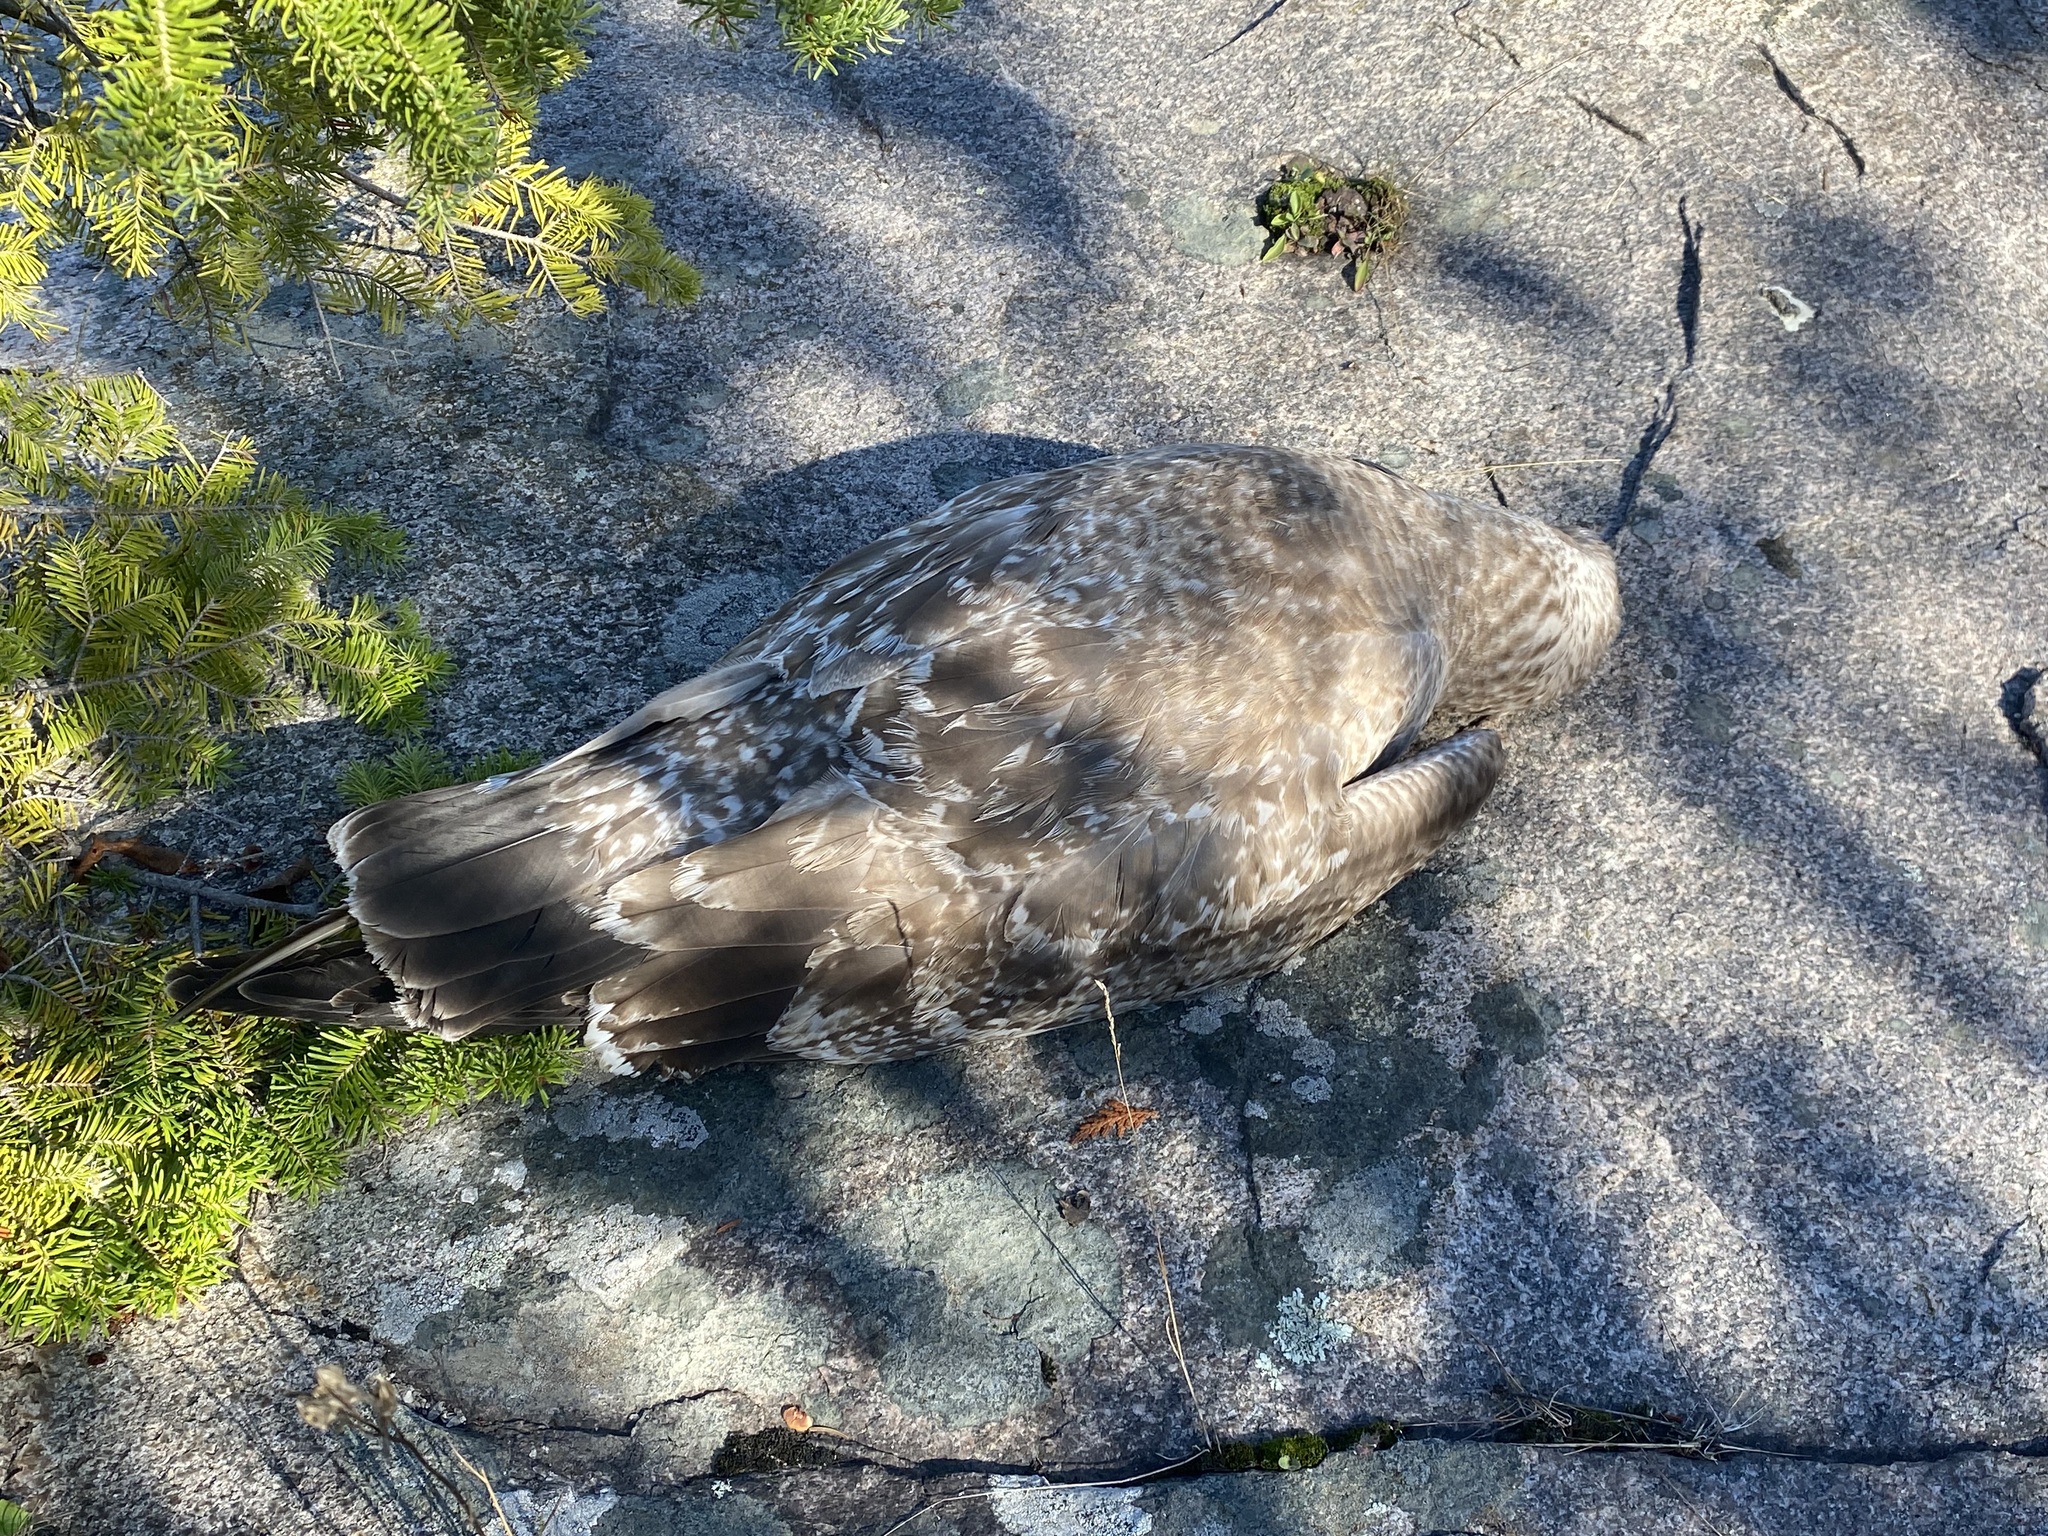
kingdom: Animalia
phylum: Chordata
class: Aves
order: Charadriiformes
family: Laridae
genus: Larus
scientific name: Larus argentatus
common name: Herring gull
